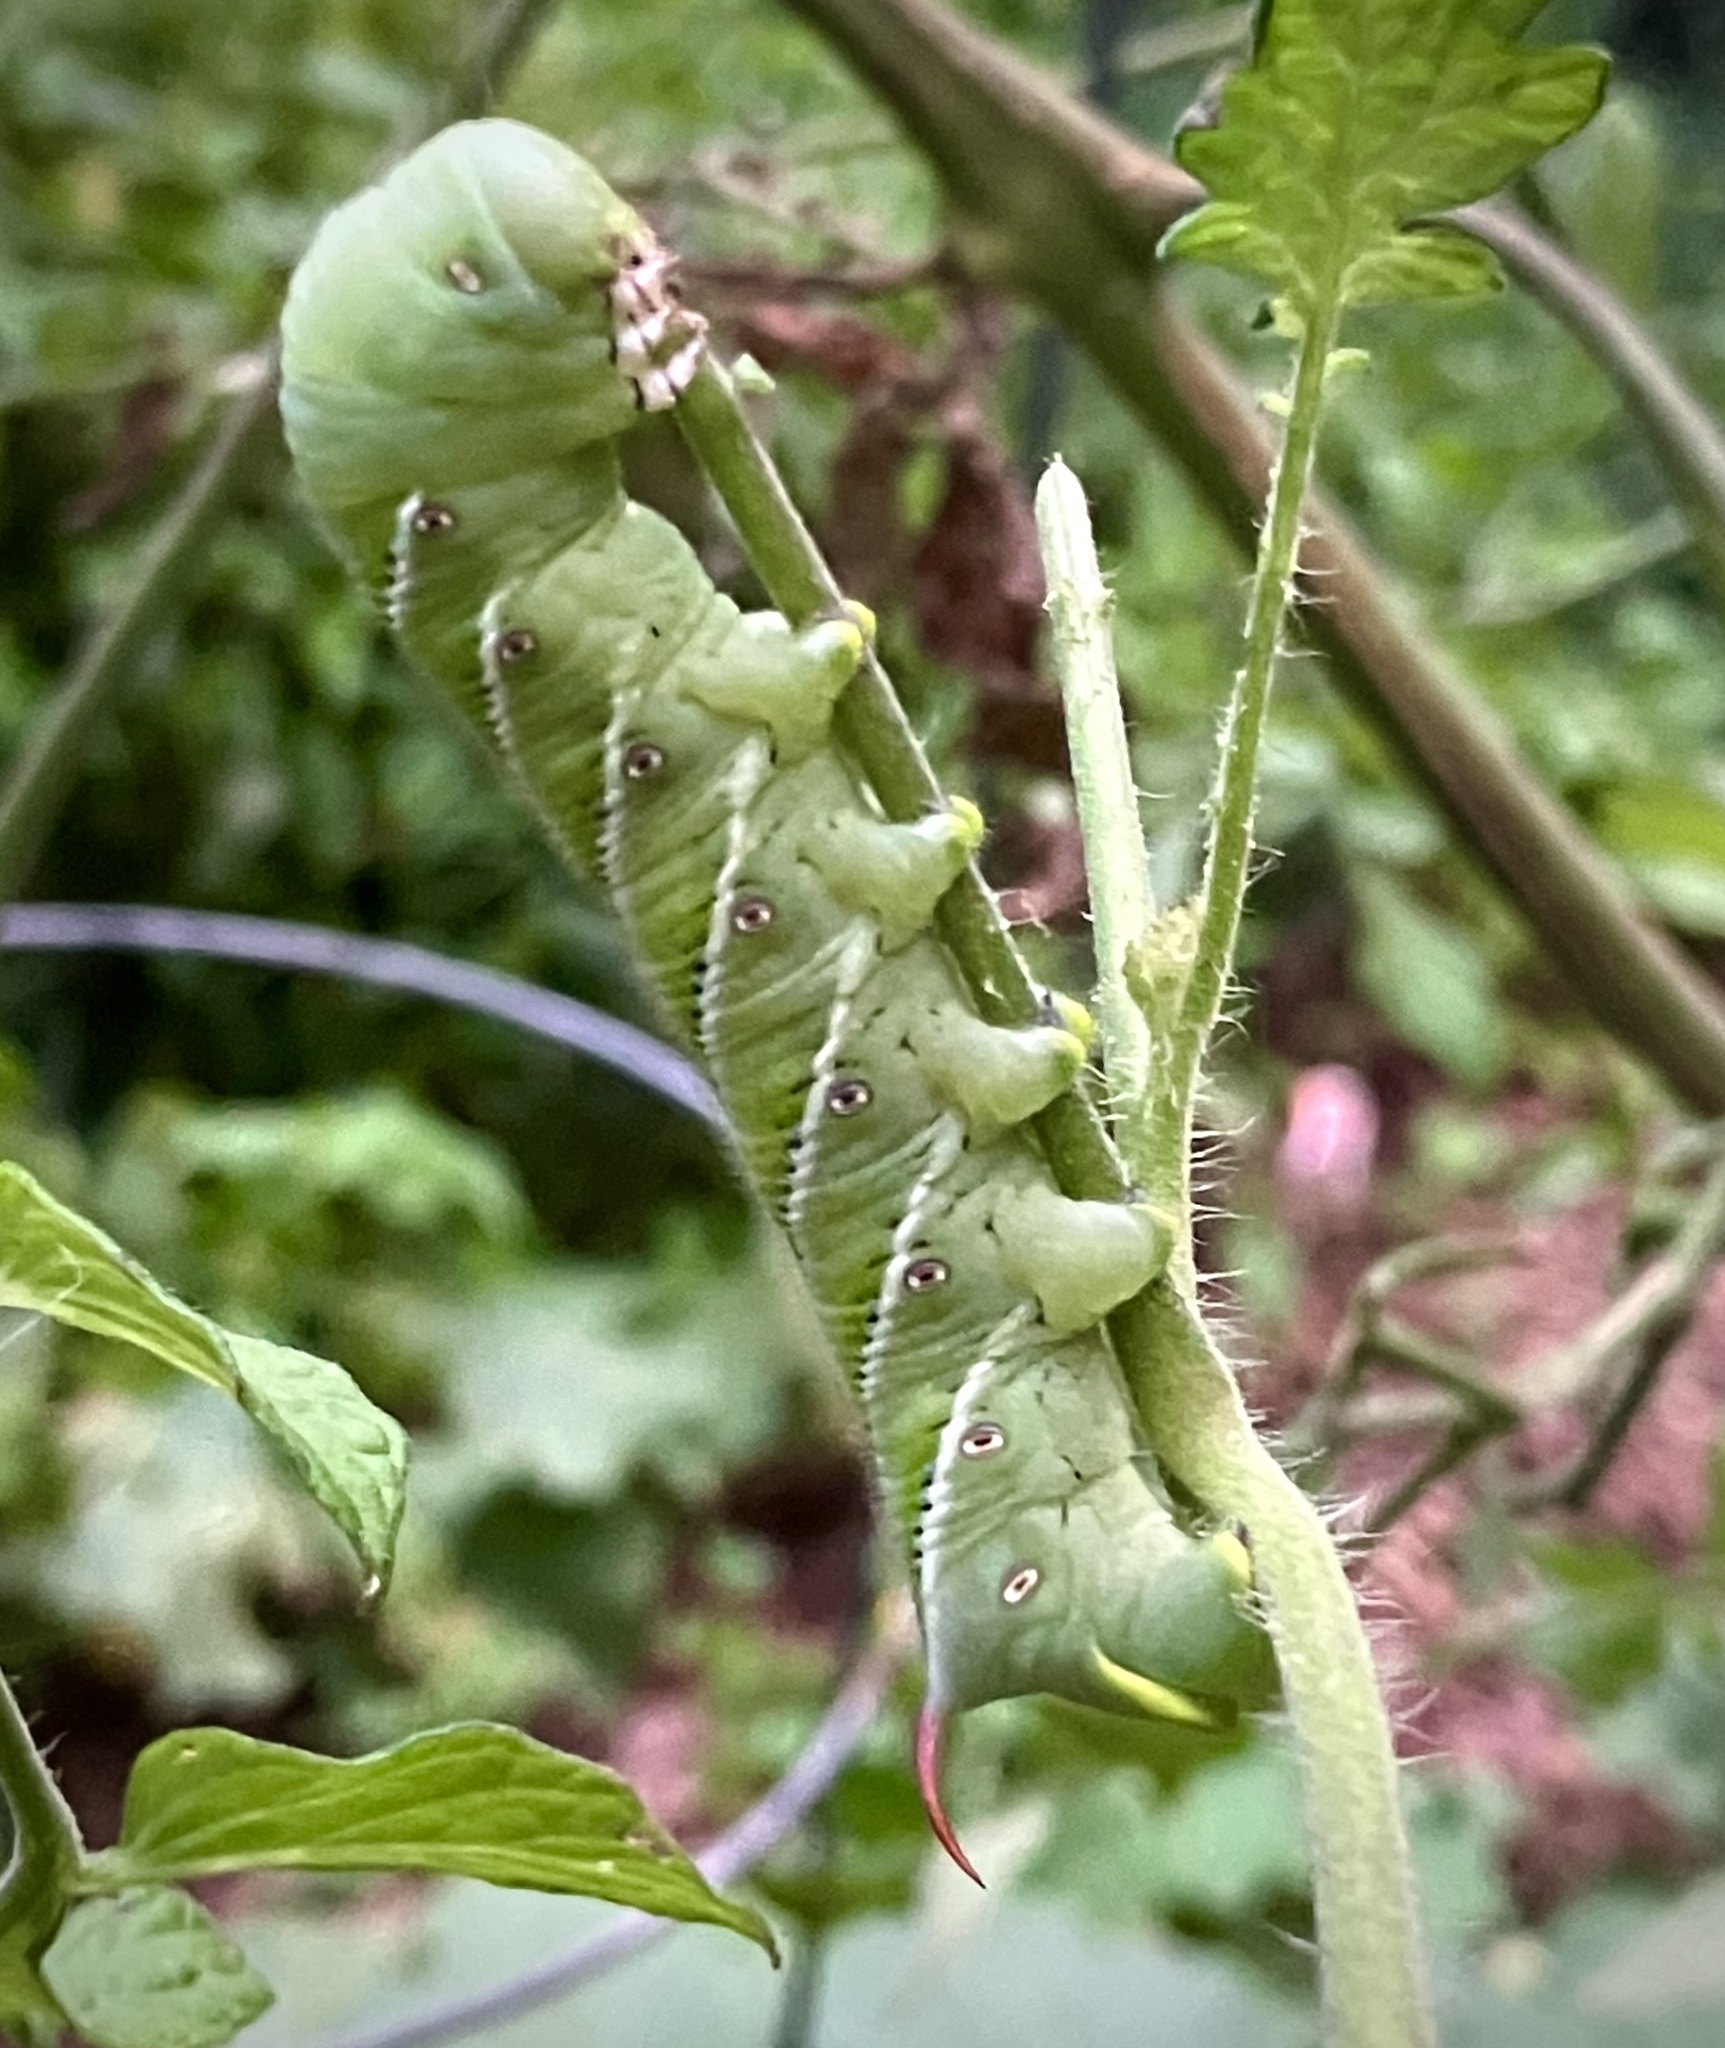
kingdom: Animalia
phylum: Arthropoda
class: Insecta
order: Lepidoptera
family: Sphingidae
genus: Manduca
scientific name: Manduca sexta
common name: Carolina sphinx
